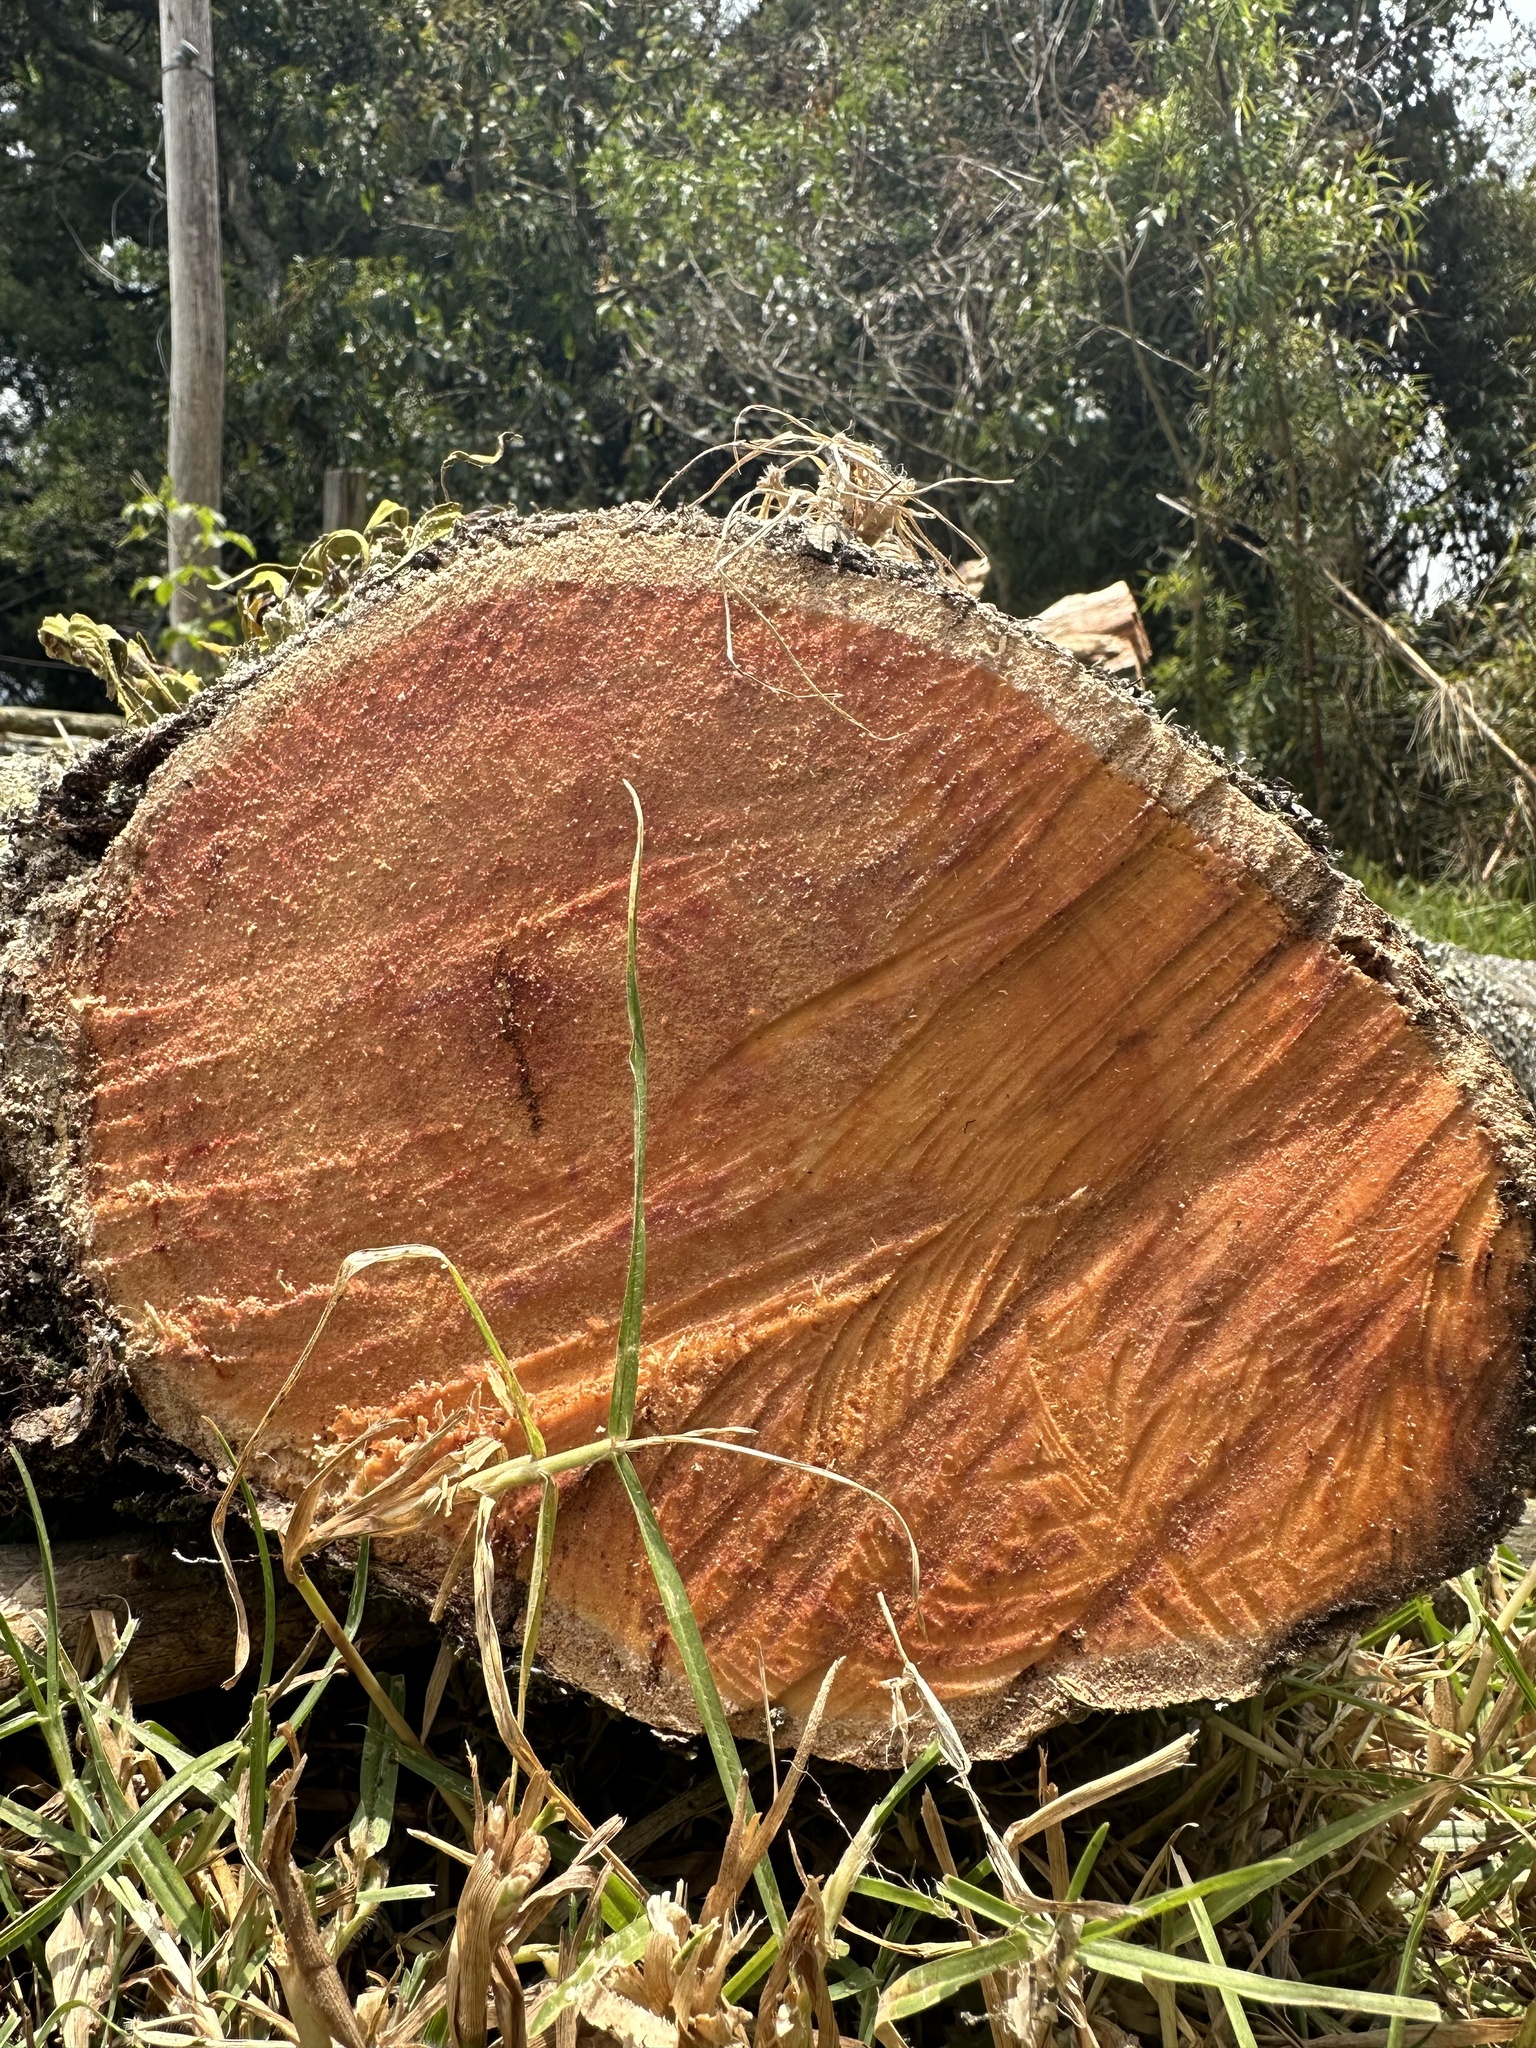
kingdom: Plantae
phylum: Tracheophyta
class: Magnoliopsida
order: Malpighiales
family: Salicaceae
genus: Xylosma
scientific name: Xylosma spiculifera
